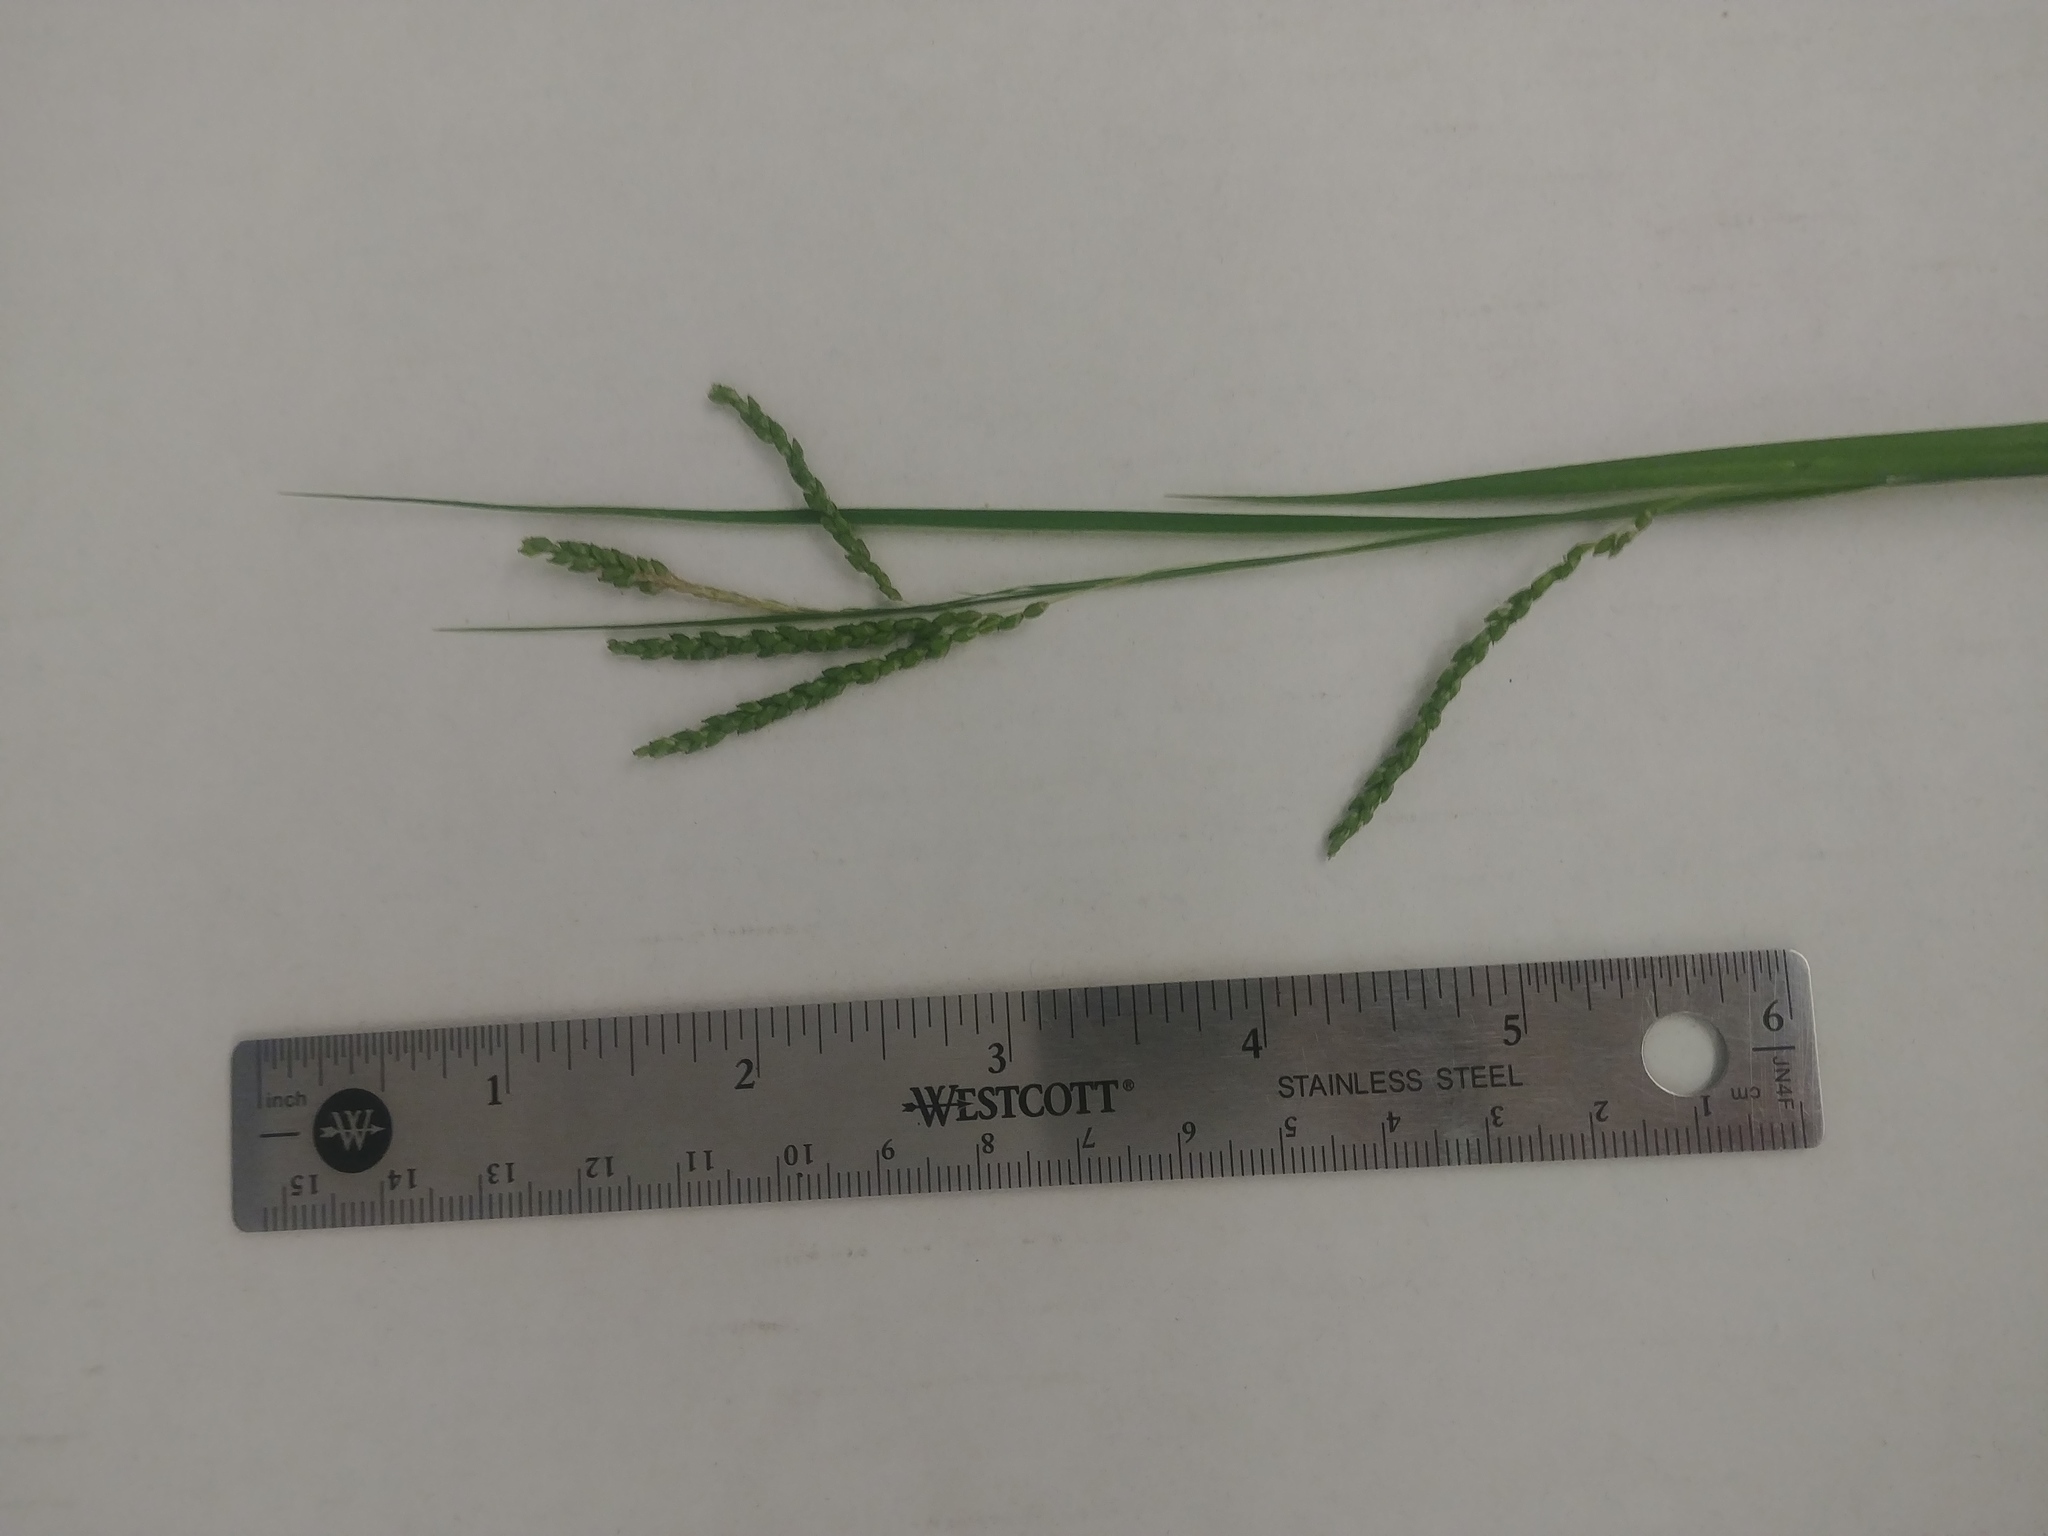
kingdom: Plantae
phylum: Tracheophyta
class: Liliopsida
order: Poales
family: Cyperaceae
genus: Carex
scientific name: Carex gracillima
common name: Graceful sedge
